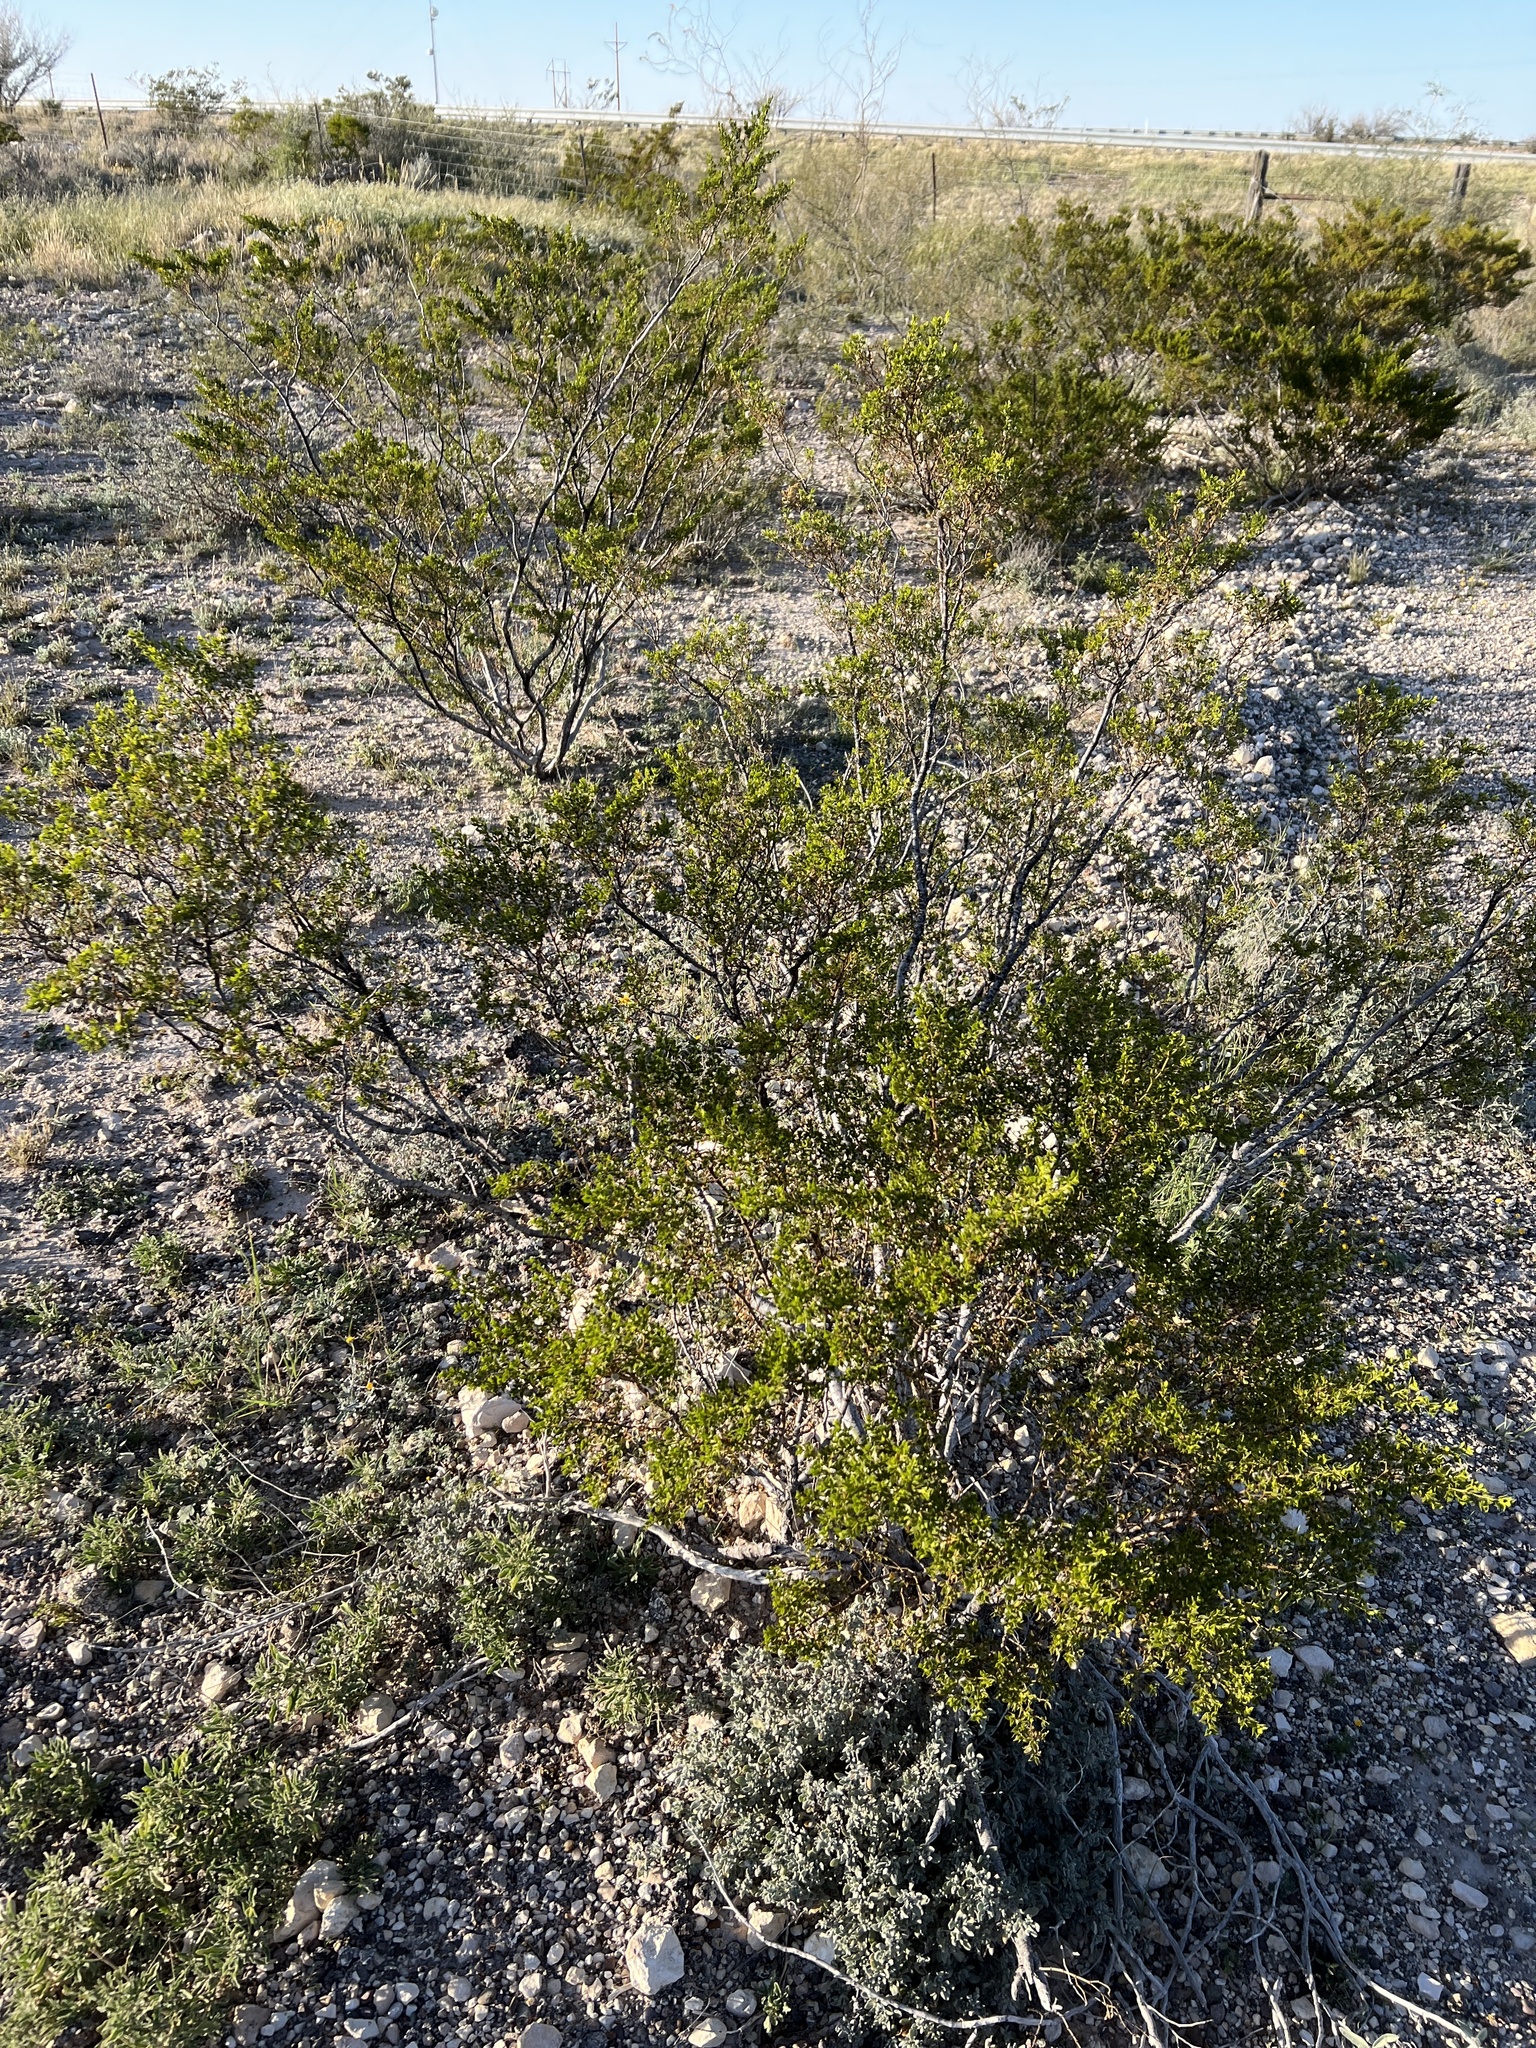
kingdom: Plantae
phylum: Tracheophyta
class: Magnoliopsida
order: Zygophyllales
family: Zygophyllaceae
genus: Larrea
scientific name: Larrea tridentata
